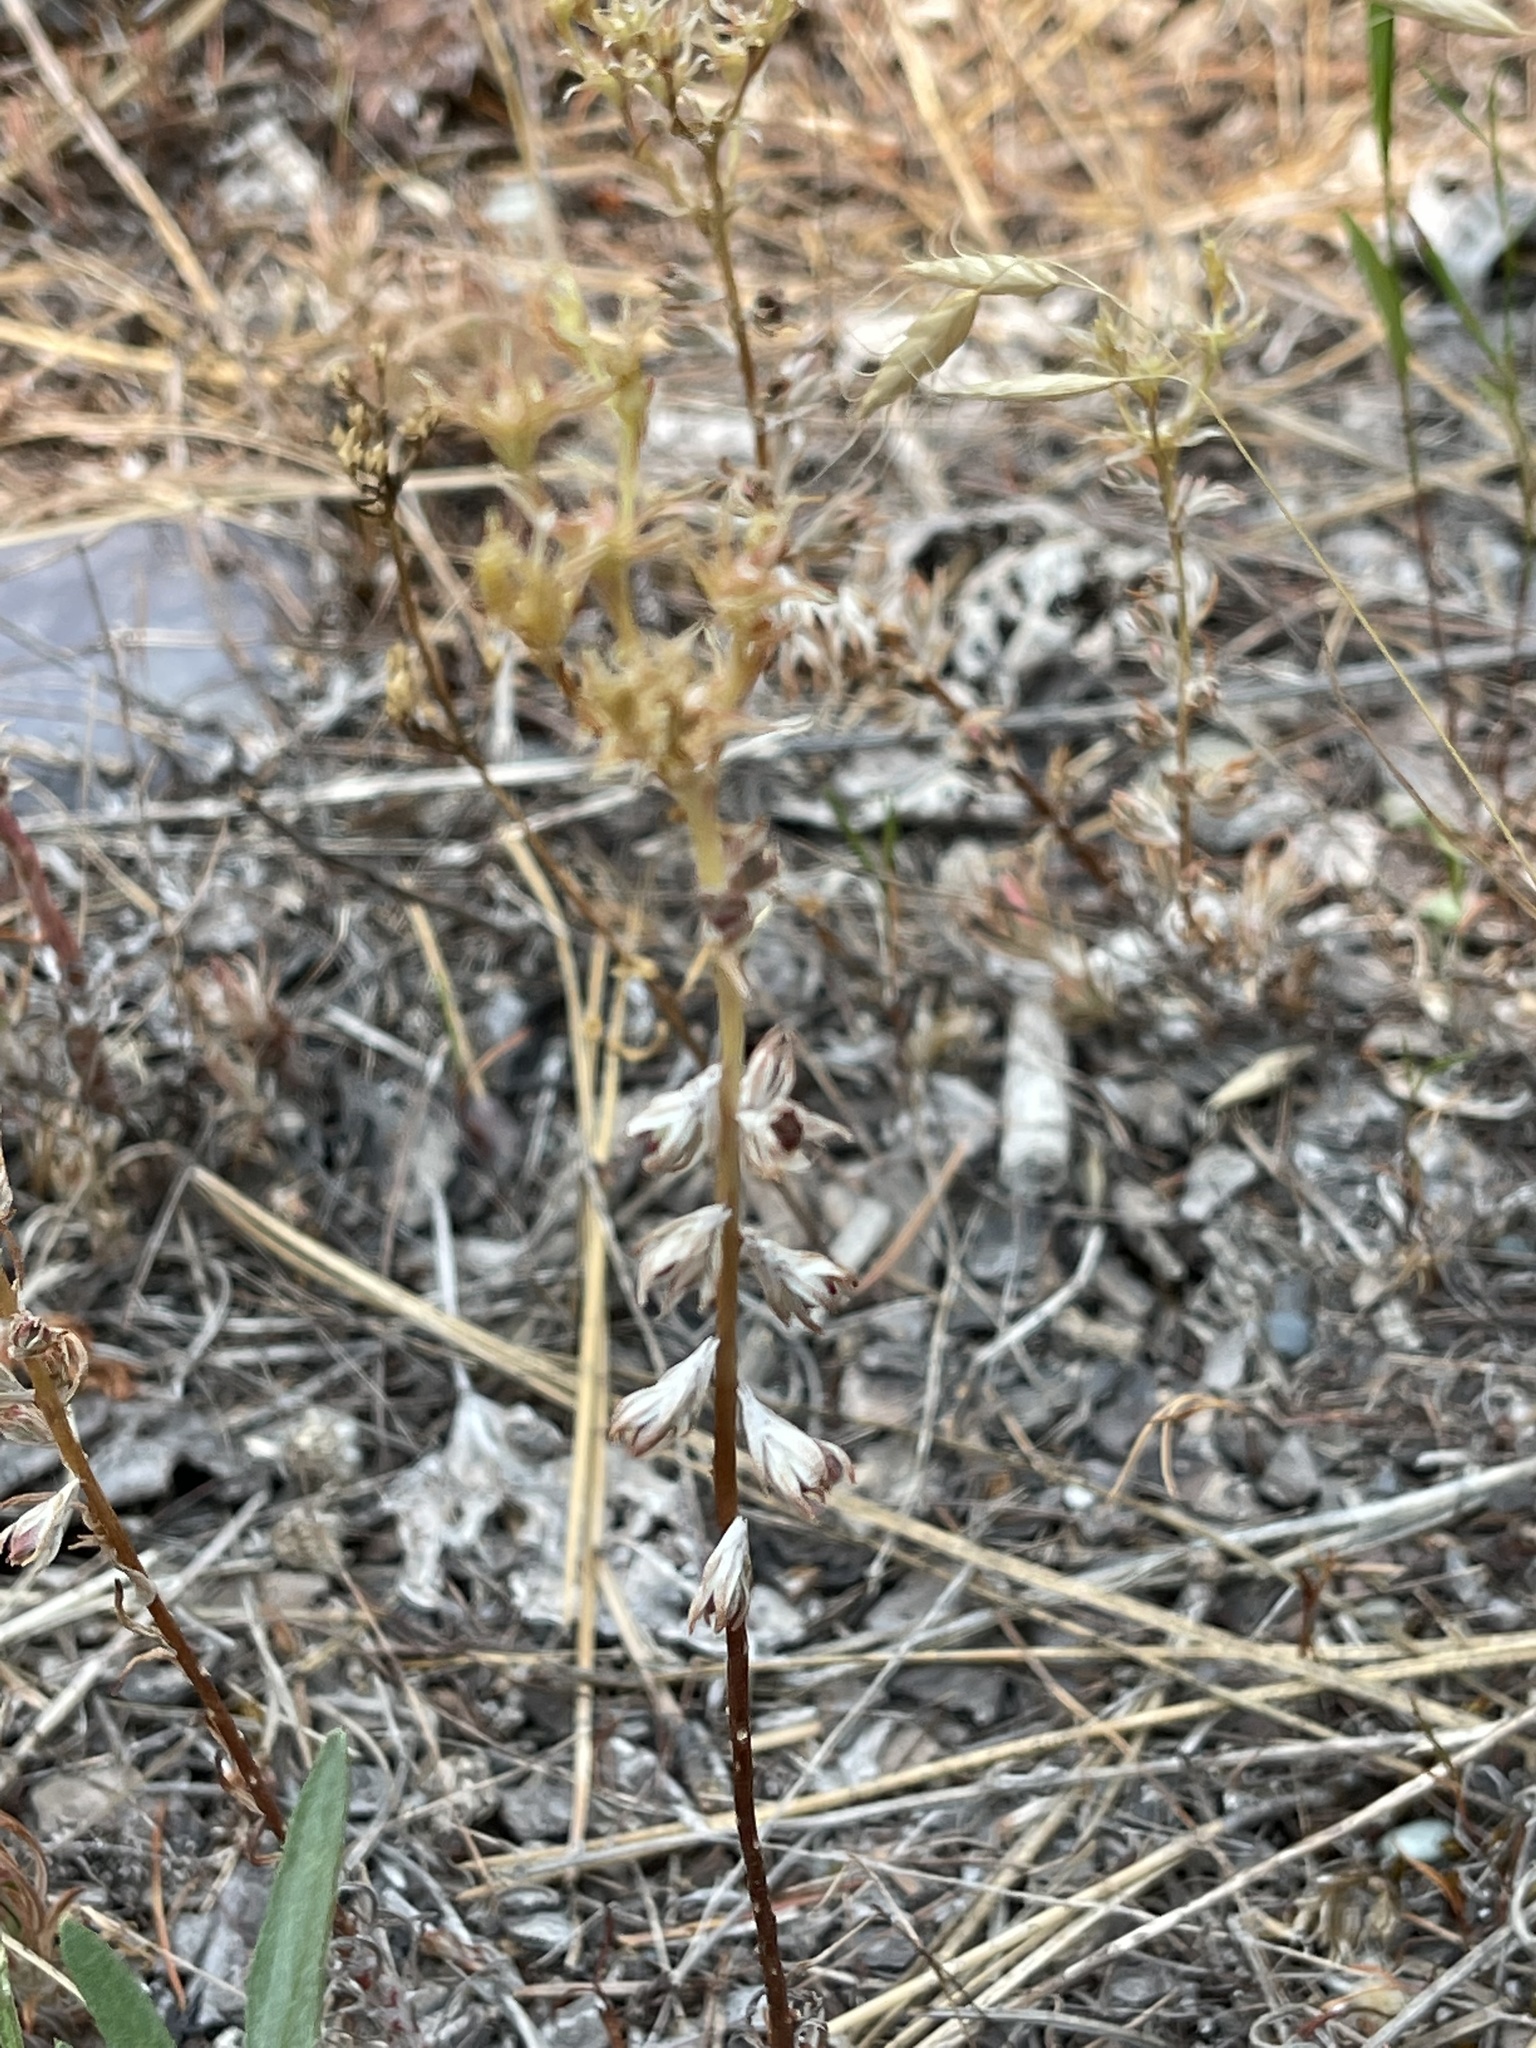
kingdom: Plantae
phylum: Tracheophyta
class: Magnoliopsida
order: Saxifragales
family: Crassulaceae
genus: Sedum
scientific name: Sedum stenopetalum
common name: Narrow-petaled stonecrop
